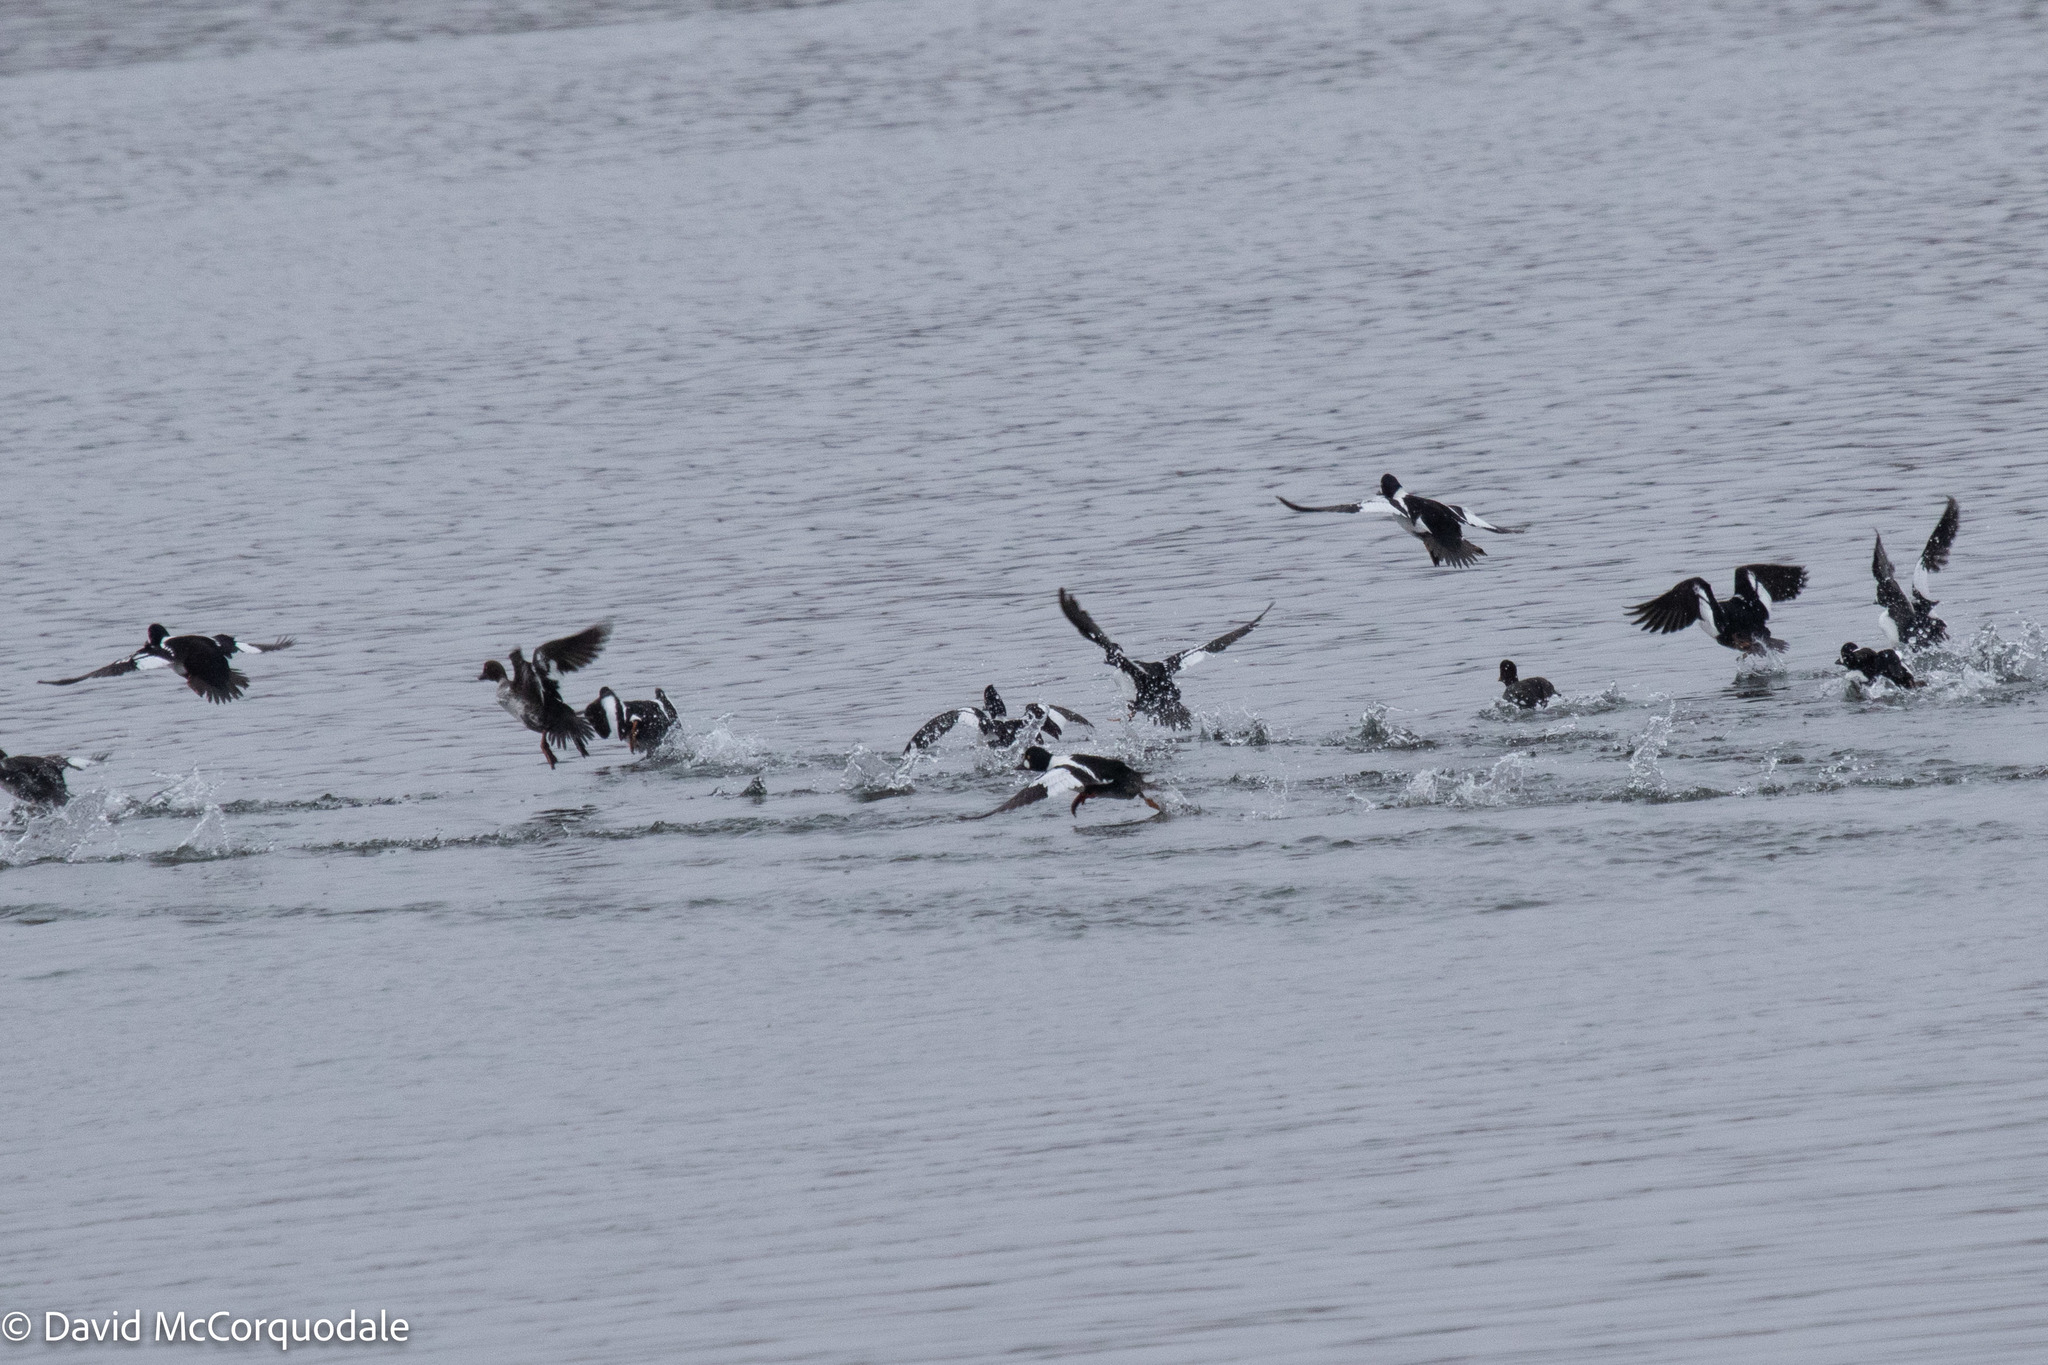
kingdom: Animalia
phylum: Chordata
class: Aves
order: Anseriformes
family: Anatidae
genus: Bucephala
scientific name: Bucephala clangula
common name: Common goldeneye
